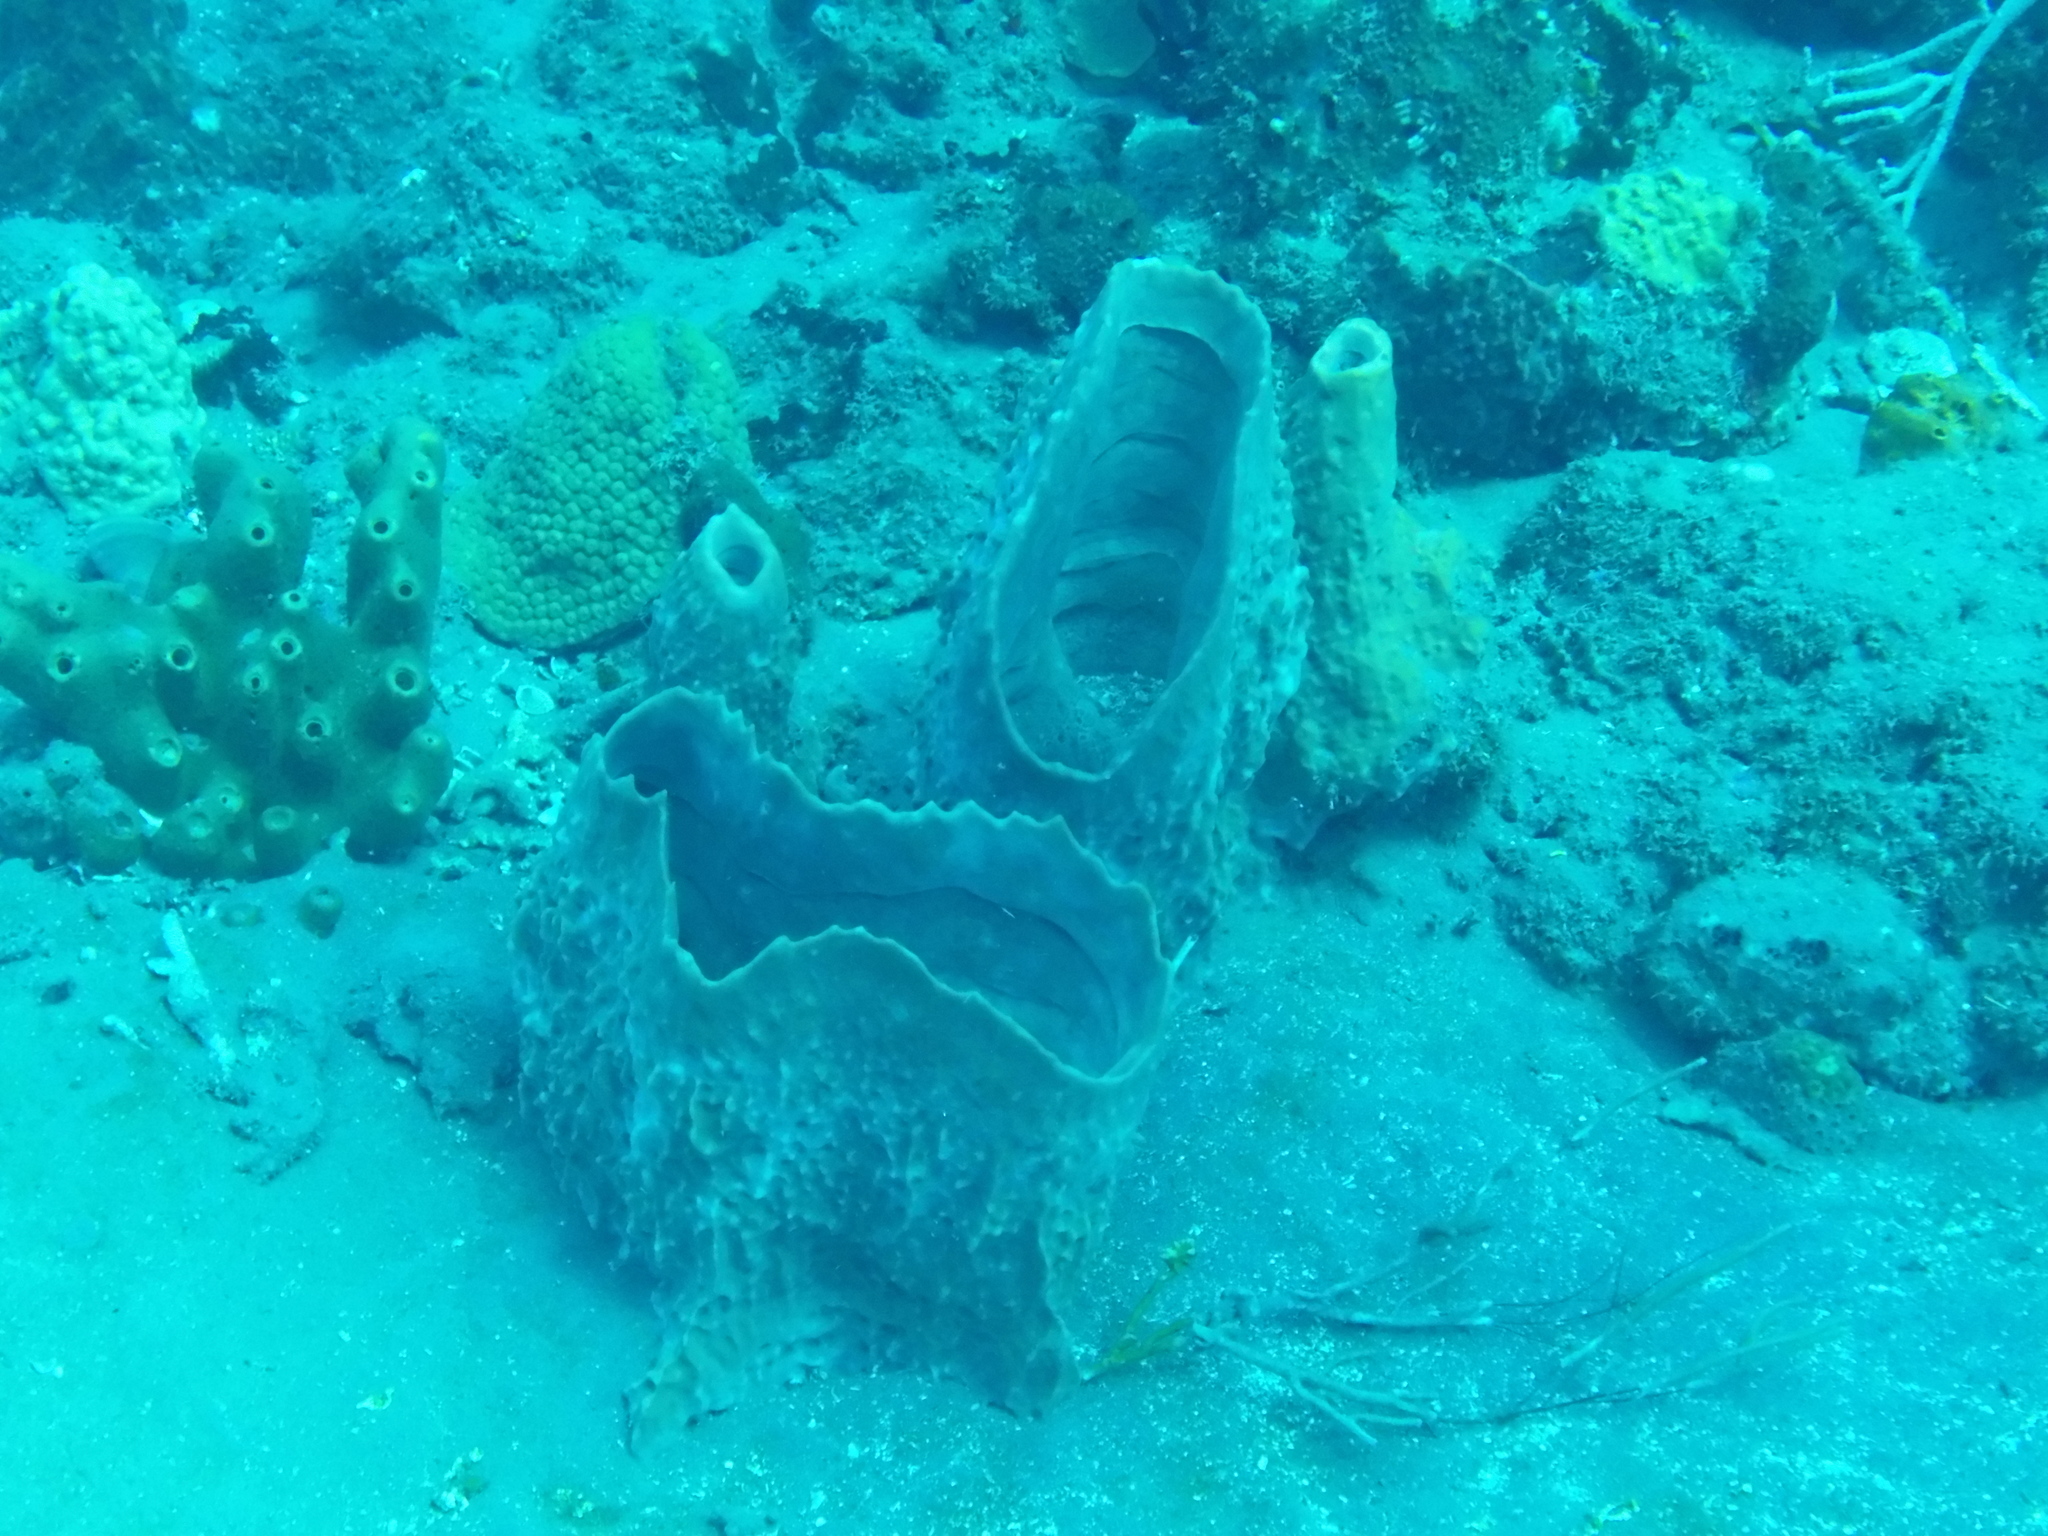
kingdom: Animalia
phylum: Porifera
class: Demospongiae
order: Haplosclerida
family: Petrosiidae
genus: Xestospongia
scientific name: Xestospongia muta
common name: Giant barrel sponge
